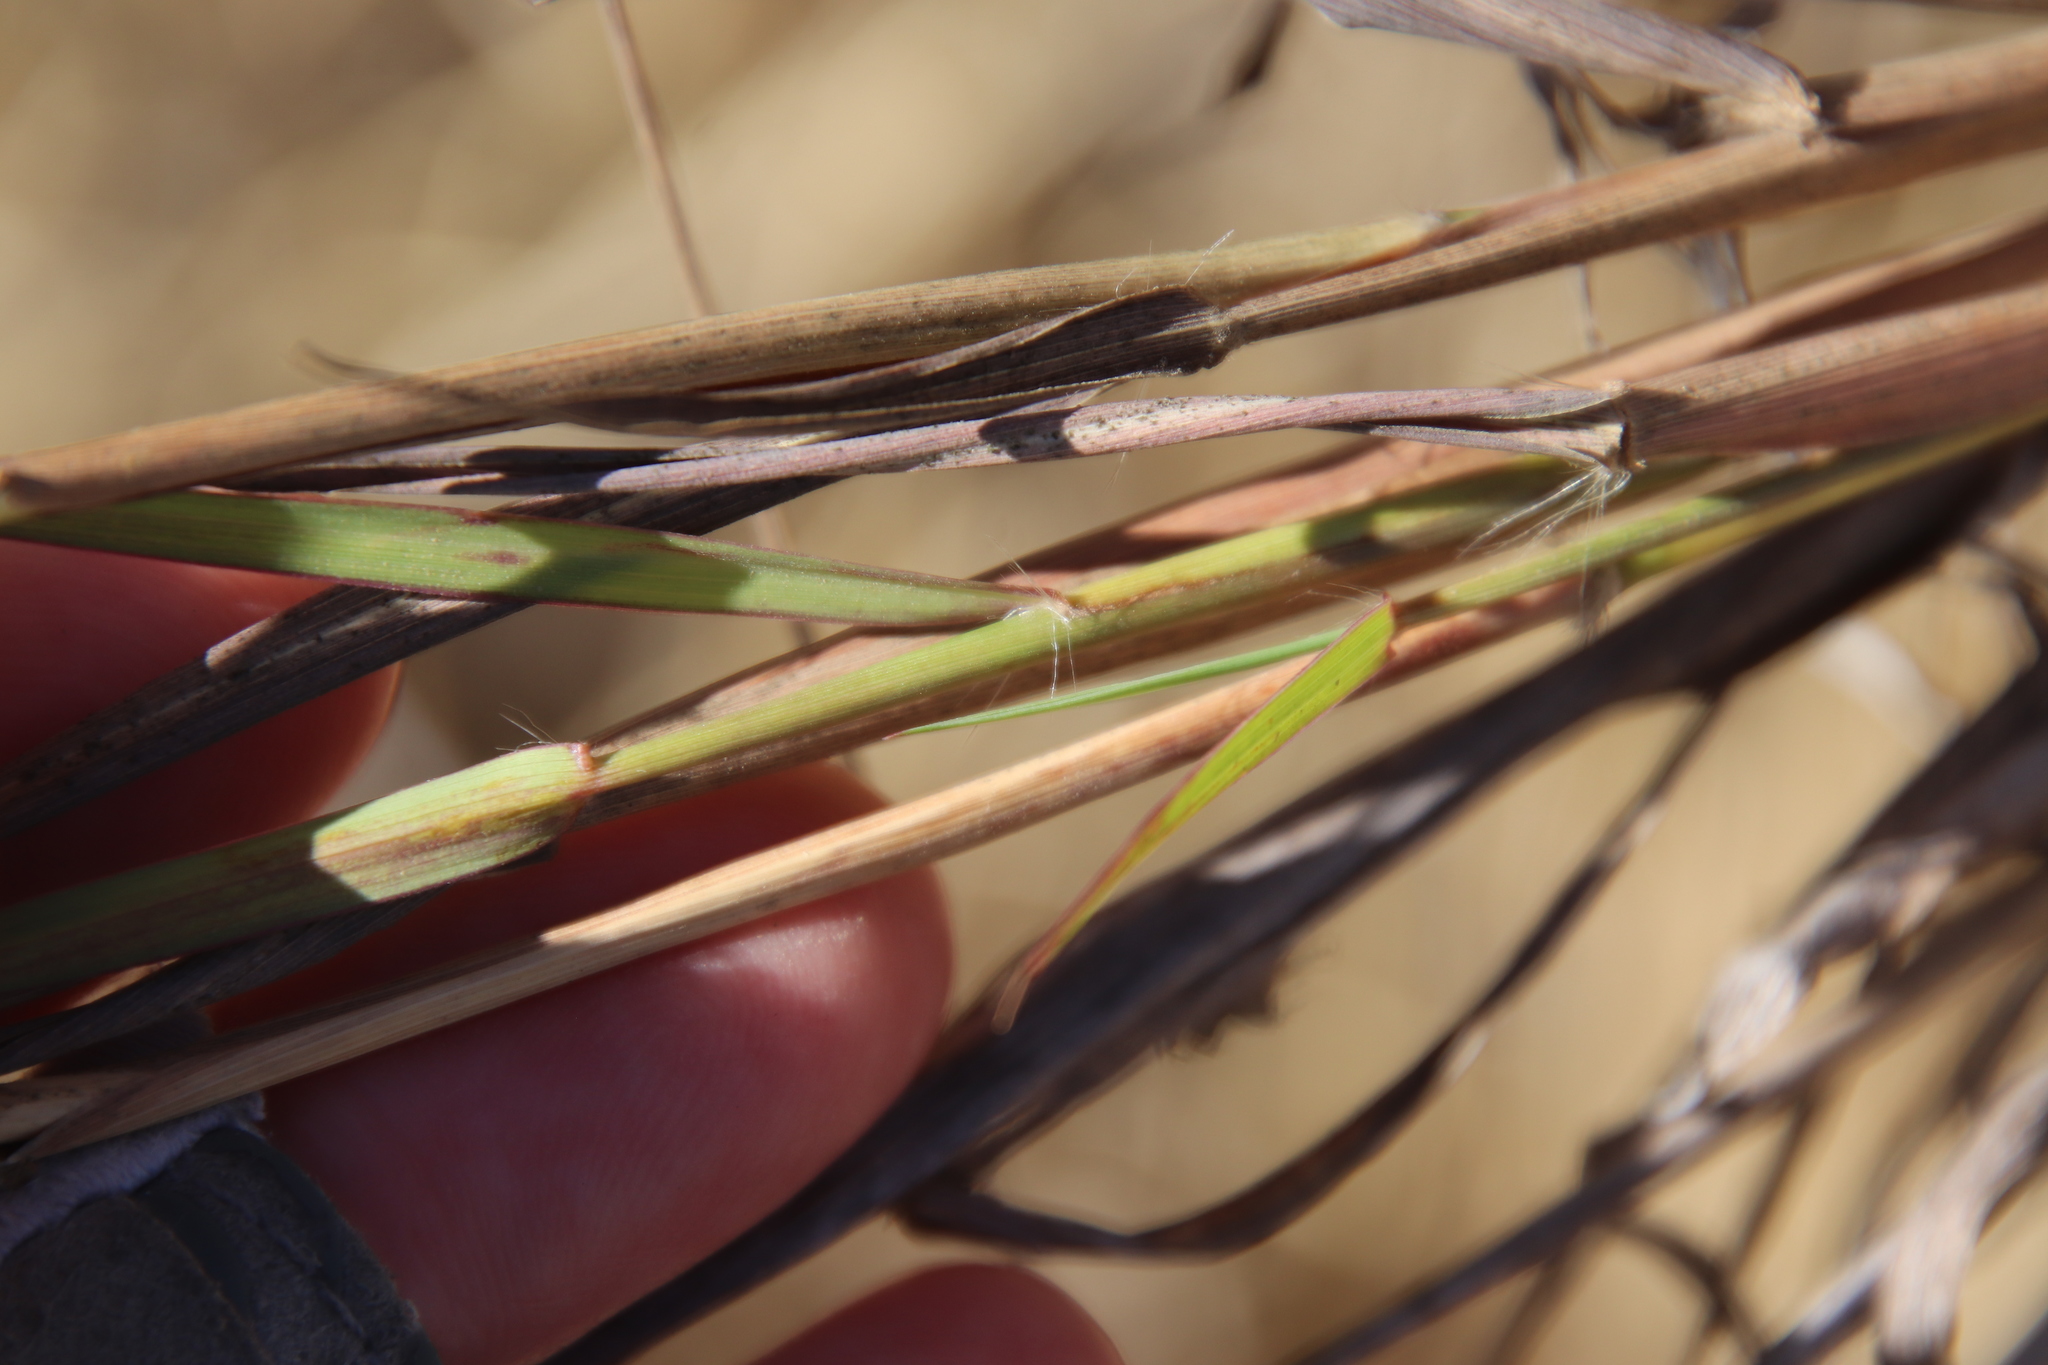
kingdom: Plantae
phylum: Tracheophyta
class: Liliopsida
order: Poales
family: Poaceae
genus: Bothriochloa
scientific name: Bothriochloa barbinodis
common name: Cane bluestem
